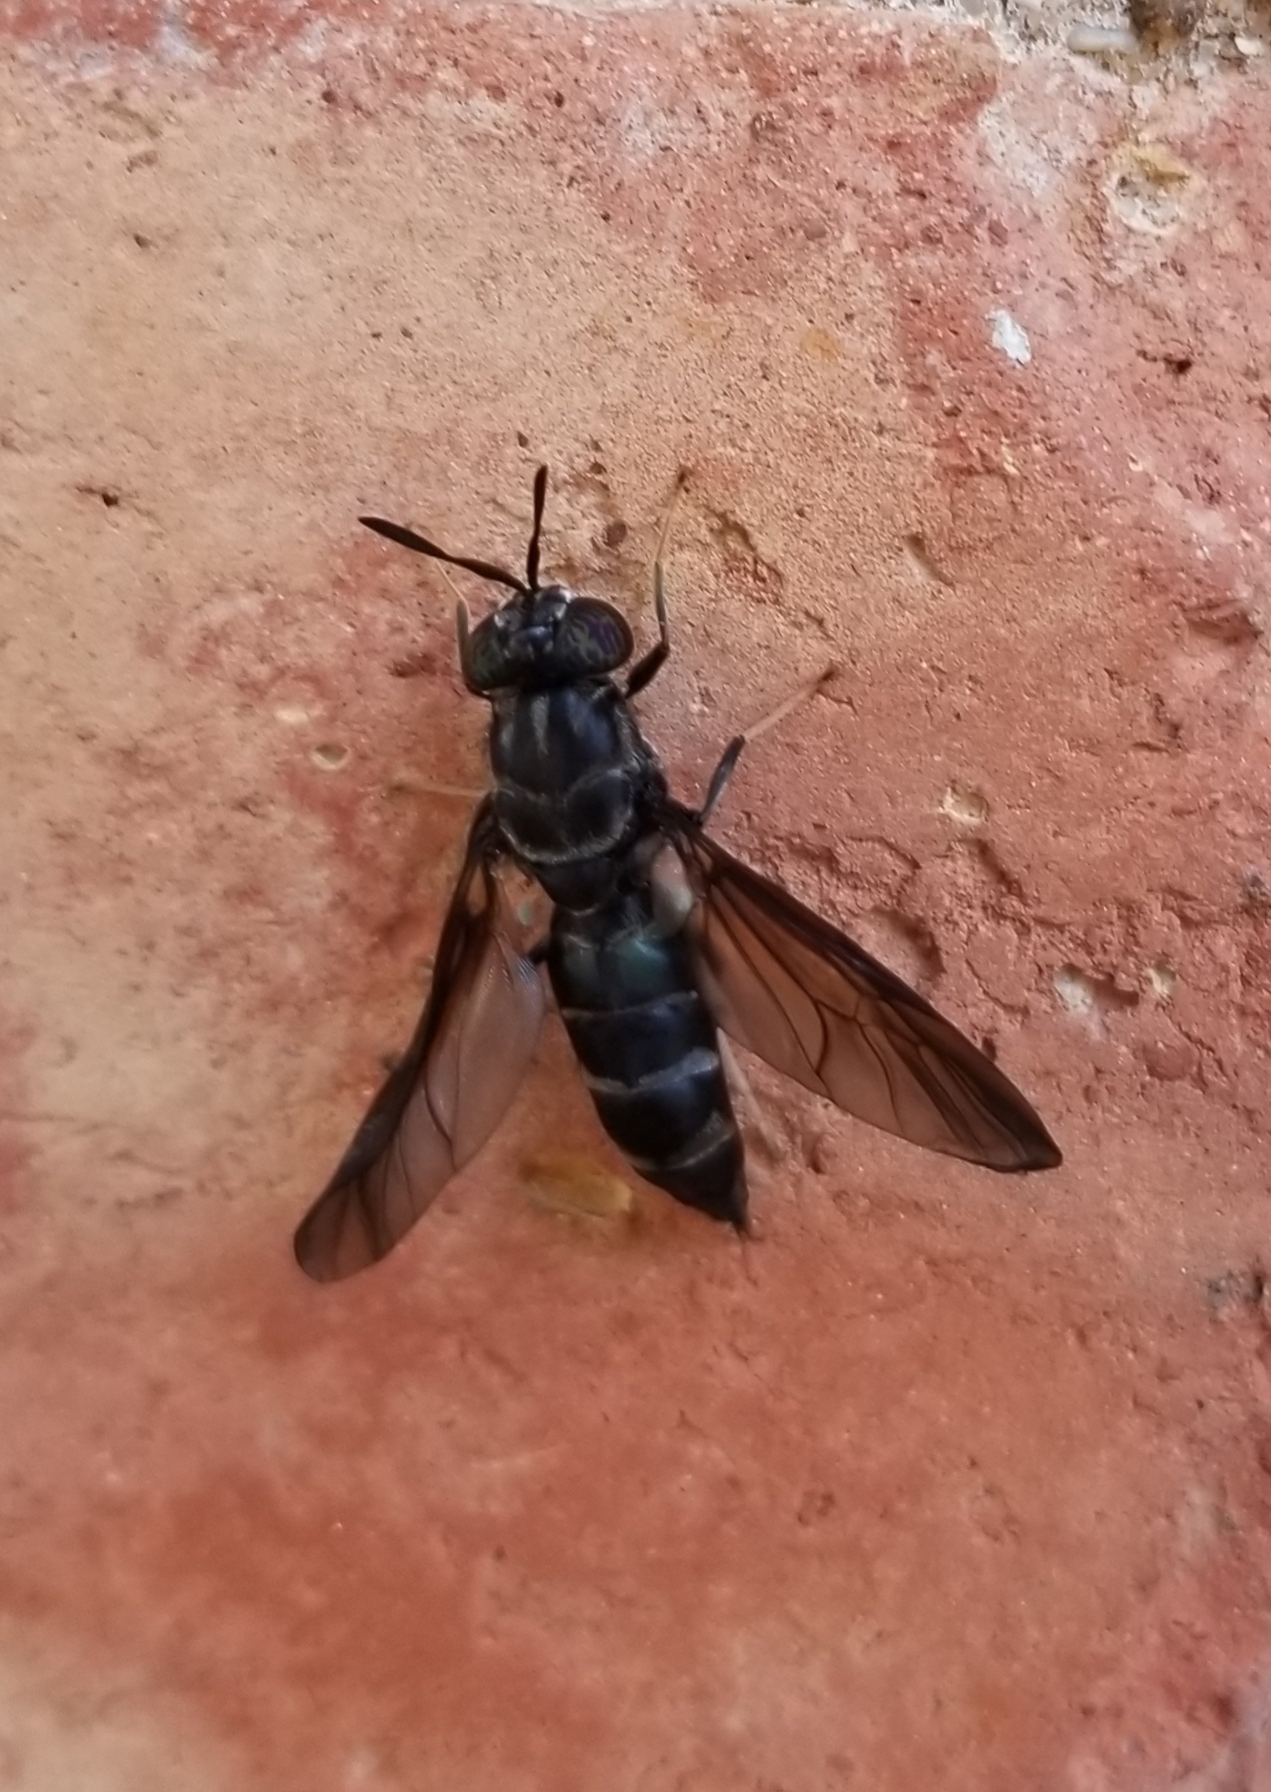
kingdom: Animalia
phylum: Arthropoda
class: Insecta
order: Diptera
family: Stratiomyidae
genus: Hermetia
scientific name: Hermetia illucens
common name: Black soldier fly
